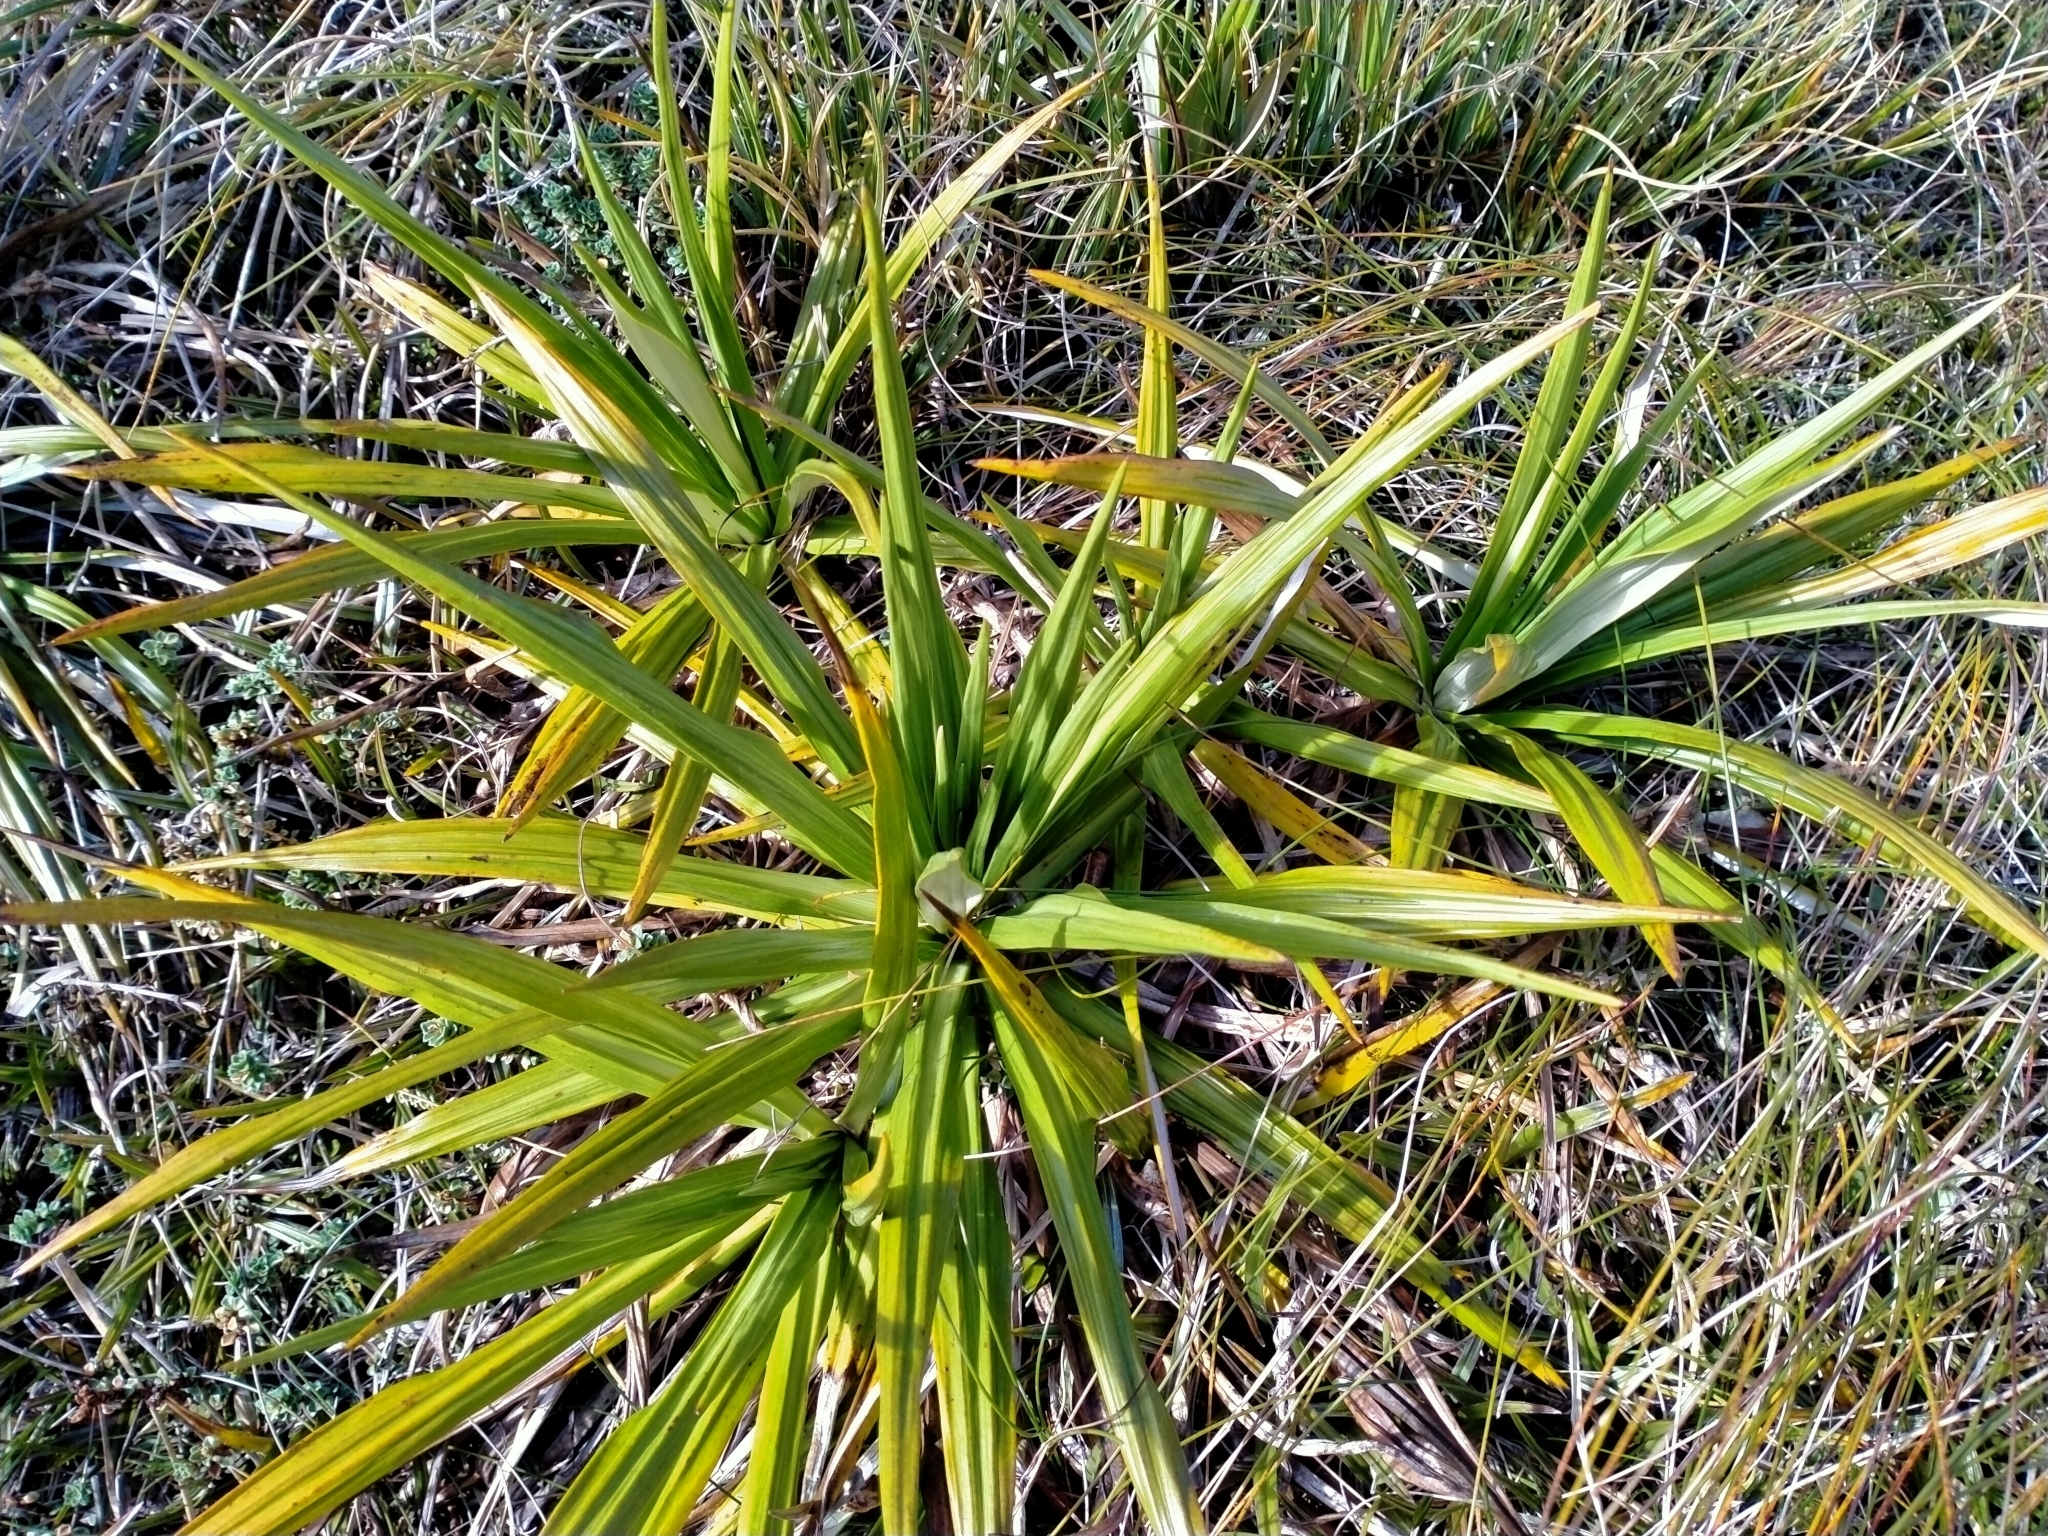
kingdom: Plantae
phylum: Tracheophyta
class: Magnoliopsida
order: Asterales
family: Asteraceae
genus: Celmisia
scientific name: Celmisia petriei
